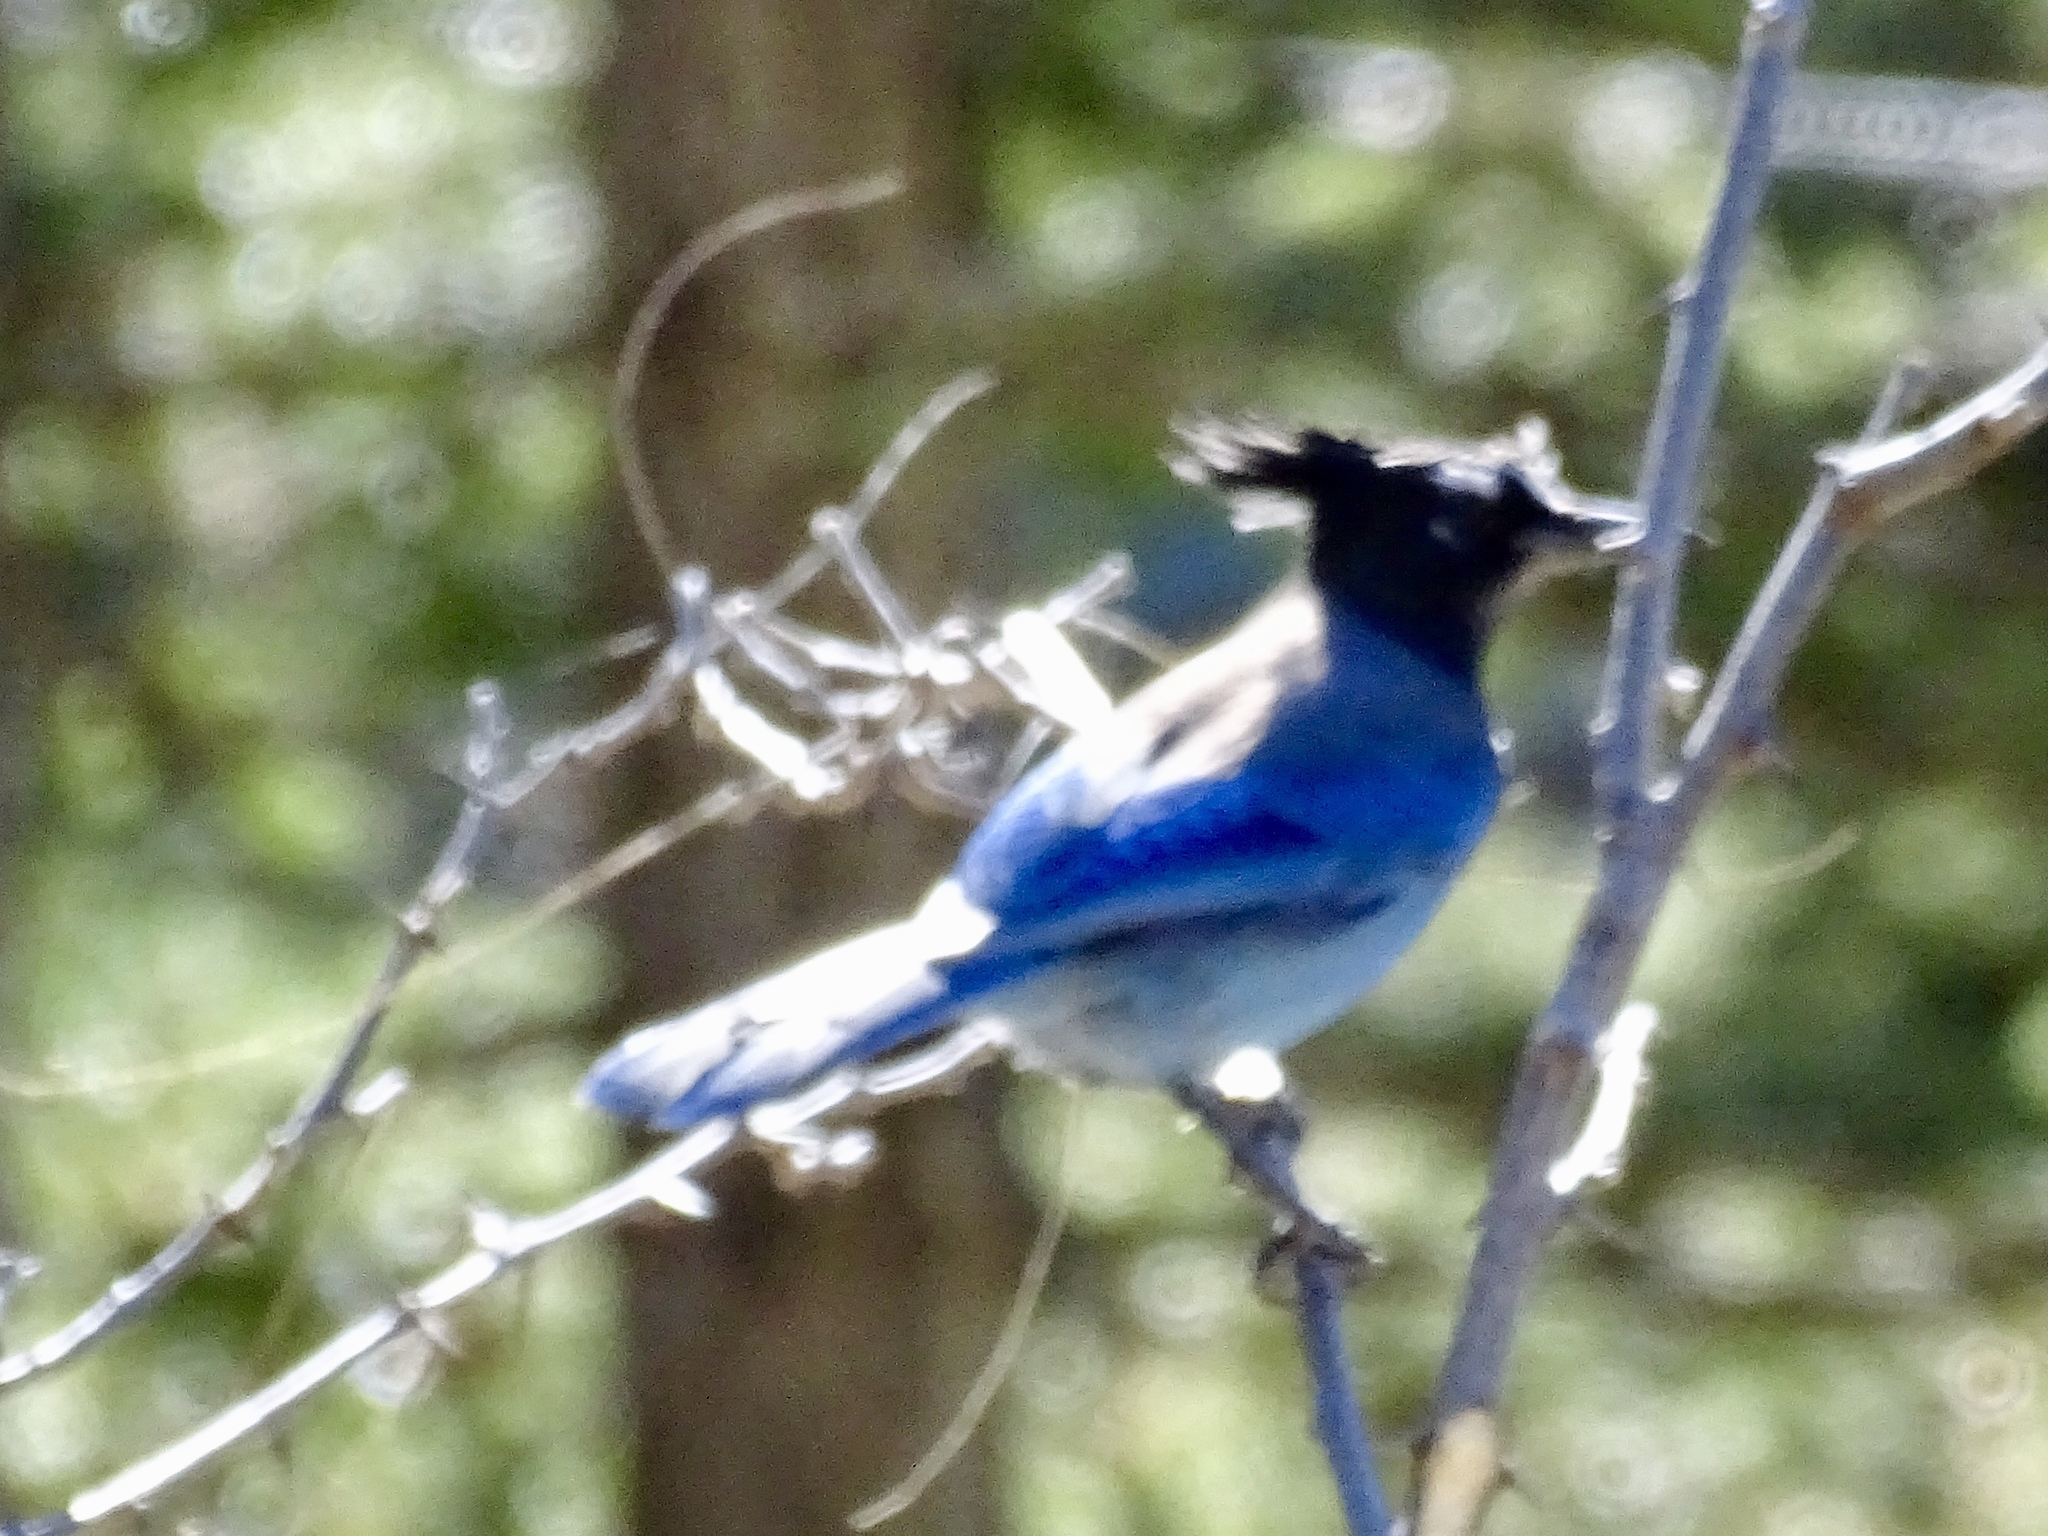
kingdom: Animalia
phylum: Chordata
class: Aves
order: Passeriformes
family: Corvidae
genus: Cyanocitta
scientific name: Cyanocitta stelleri
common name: Steller's jay
